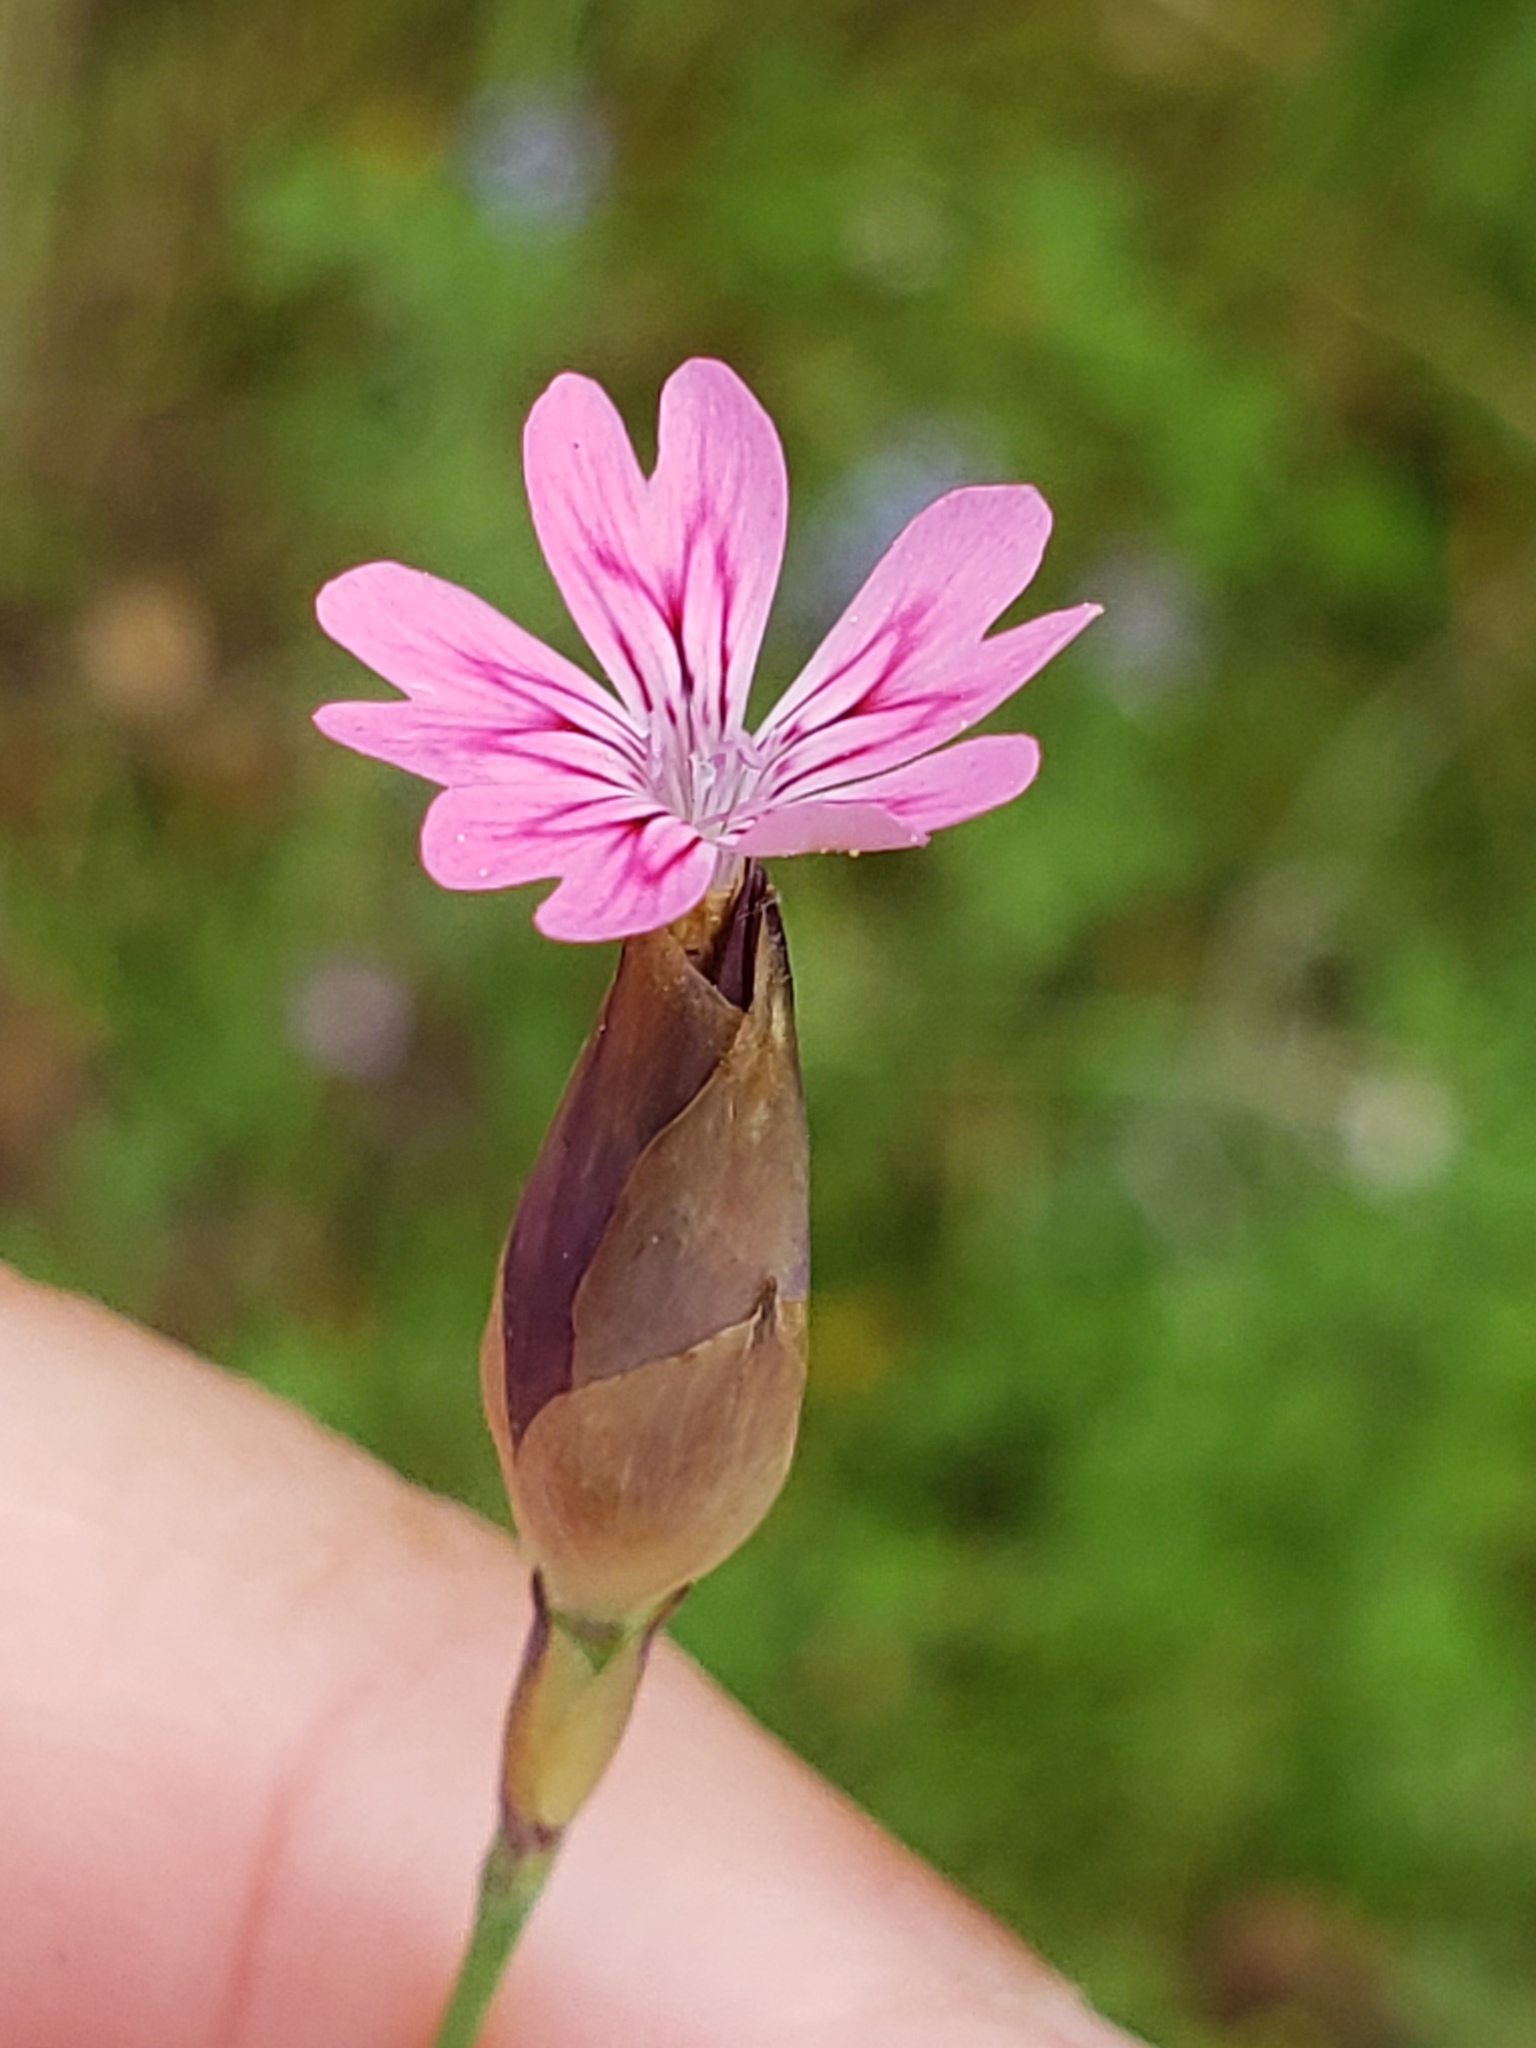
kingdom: Plantae
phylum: Tracheophyta
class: Magnoliopsida
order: Caryophyllales
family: Caryophyllaceae
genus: Petrorhagia
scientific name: Petrorhagia dubia
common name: Hairypink
